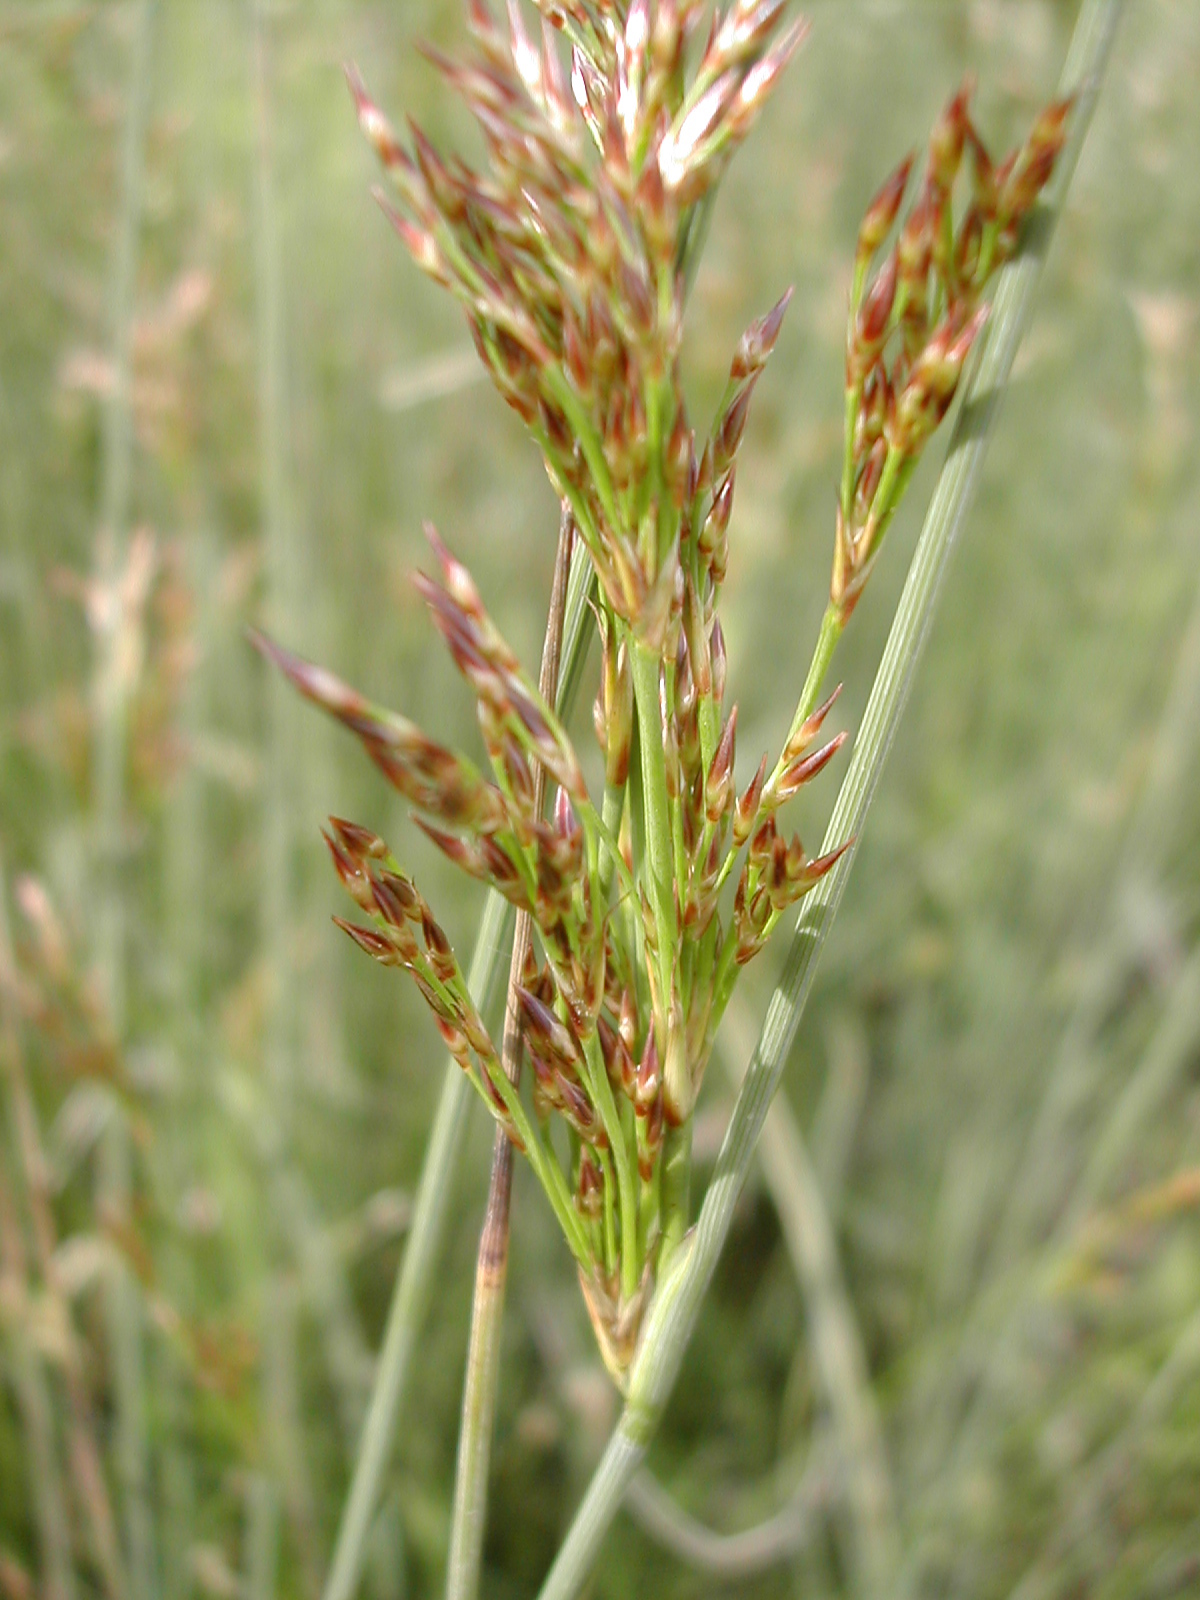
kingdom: Plantae
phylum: Tracheophyta
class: Liliopsida
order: Poales
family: Juncaceae
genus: Juncus
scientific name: Juncus inflexus
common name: Hard rush
